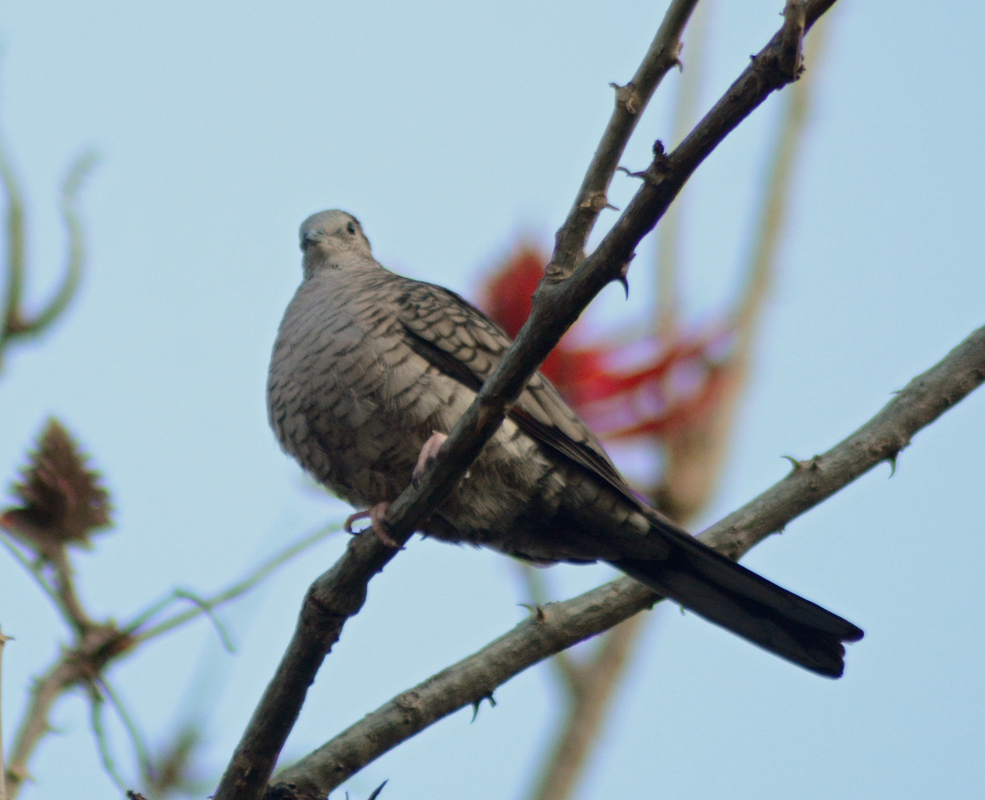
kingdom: Animalia
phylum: Chordata
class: Aves
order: Columbiformes
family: Columbidae
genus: Columbina
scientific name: Columbina inca
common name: Inca dove
